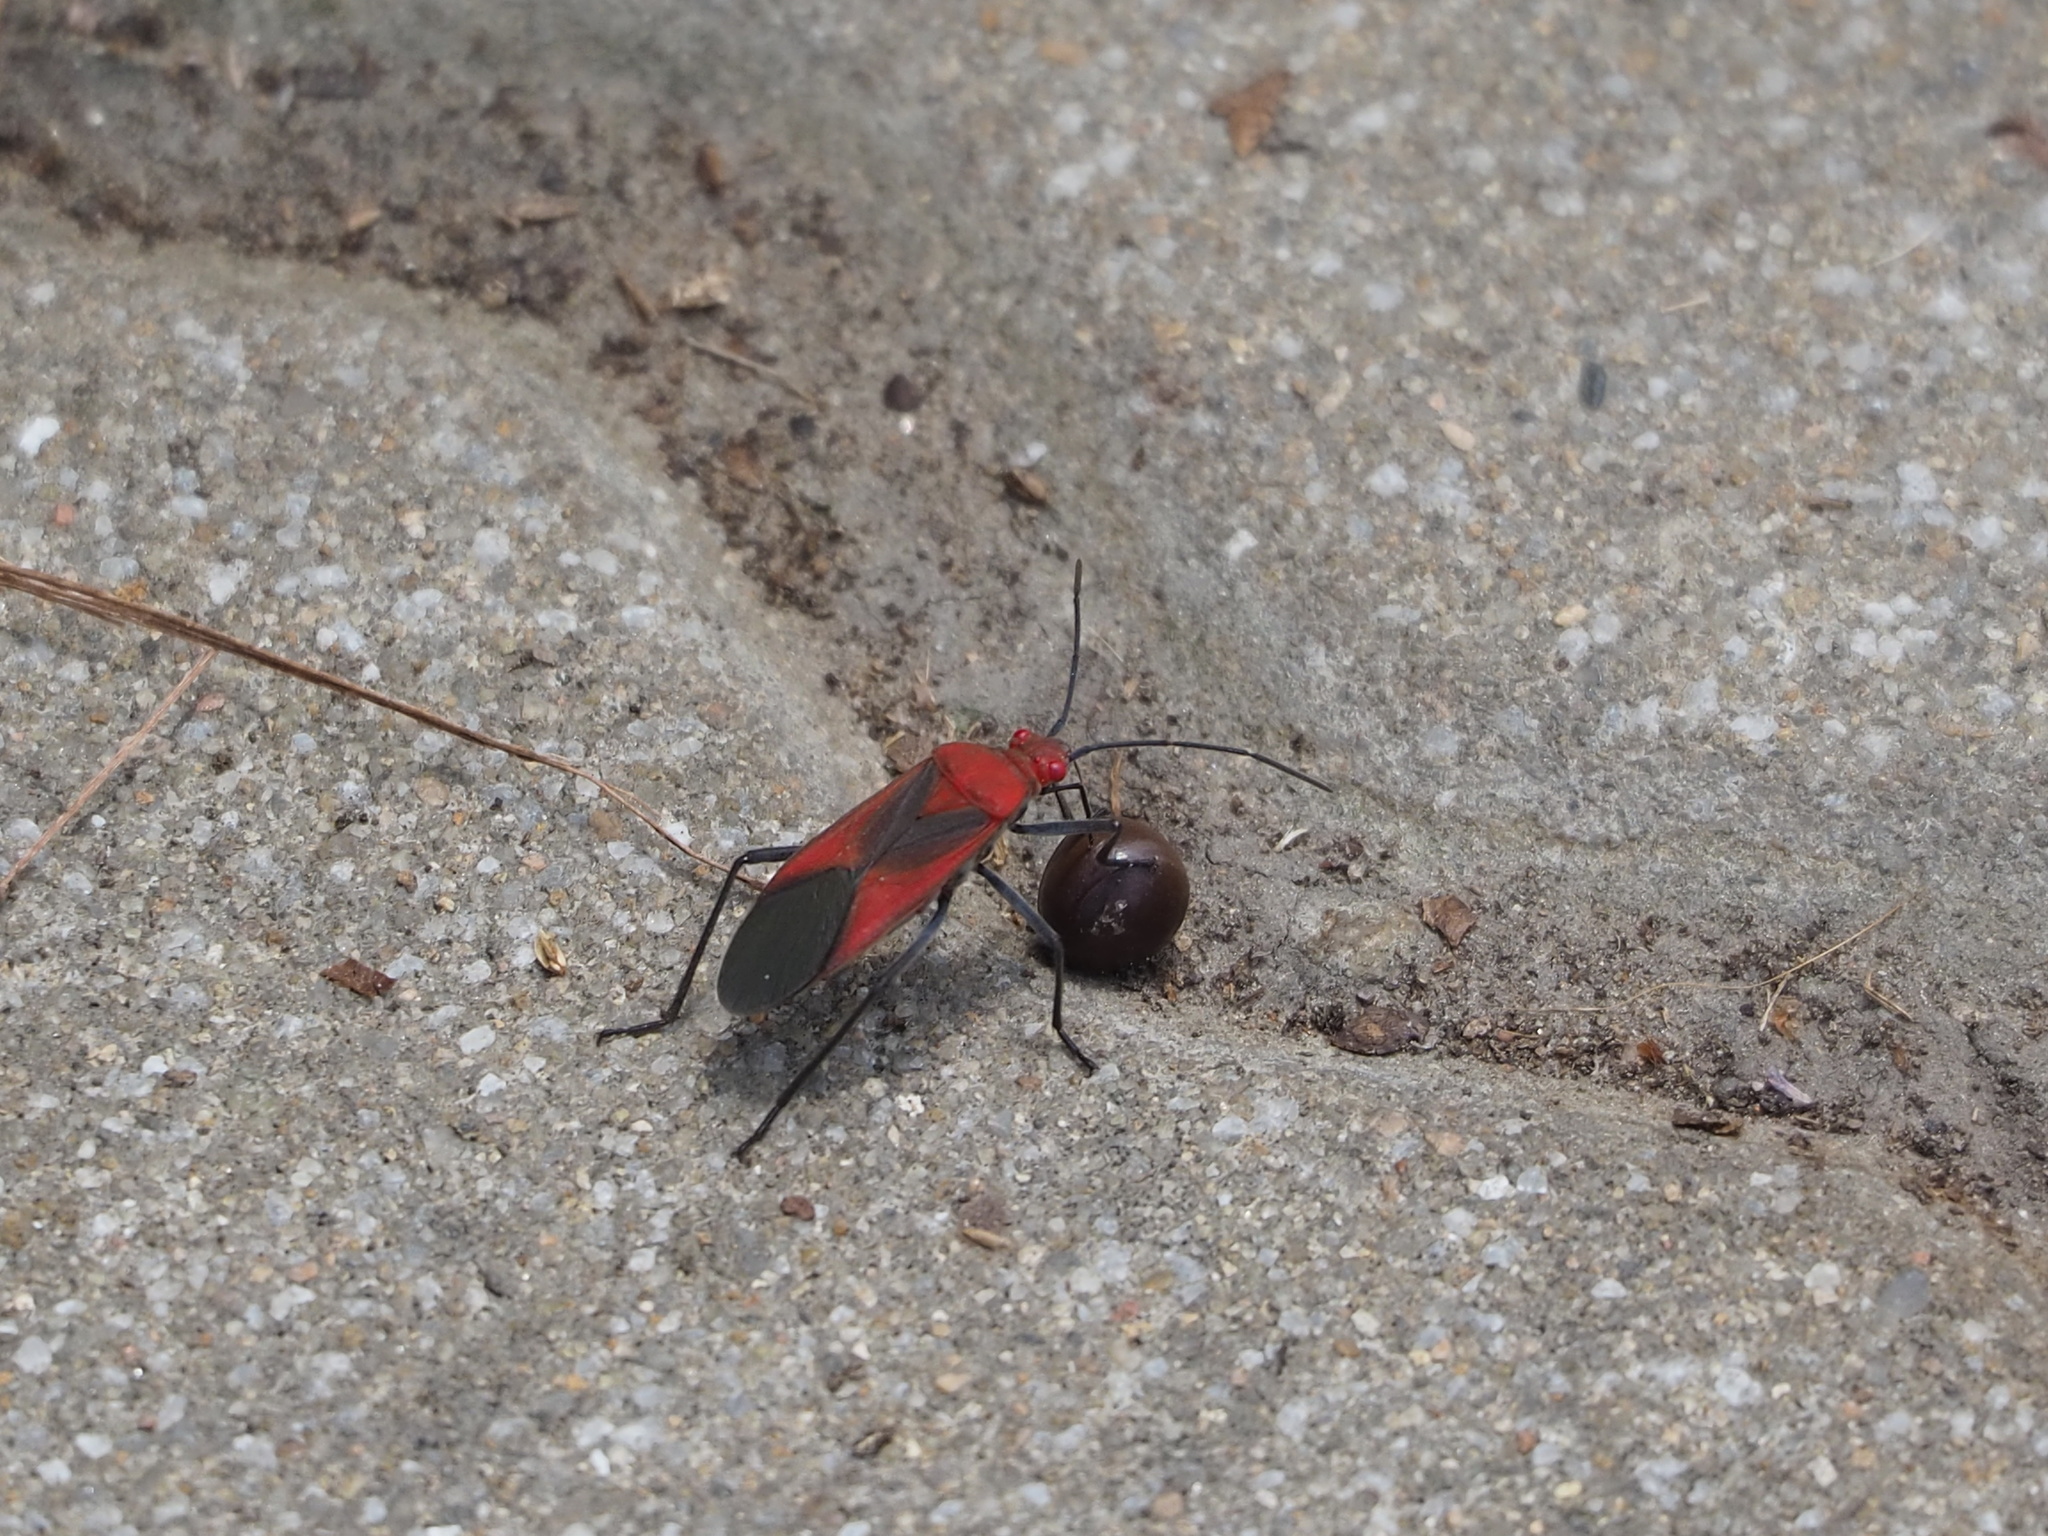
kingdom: Animalia
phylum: Arthropoda
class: Insecta
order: Hemiptera
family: Rhopalidae
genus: Leptocoris
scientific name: Leptocoris vicinus
